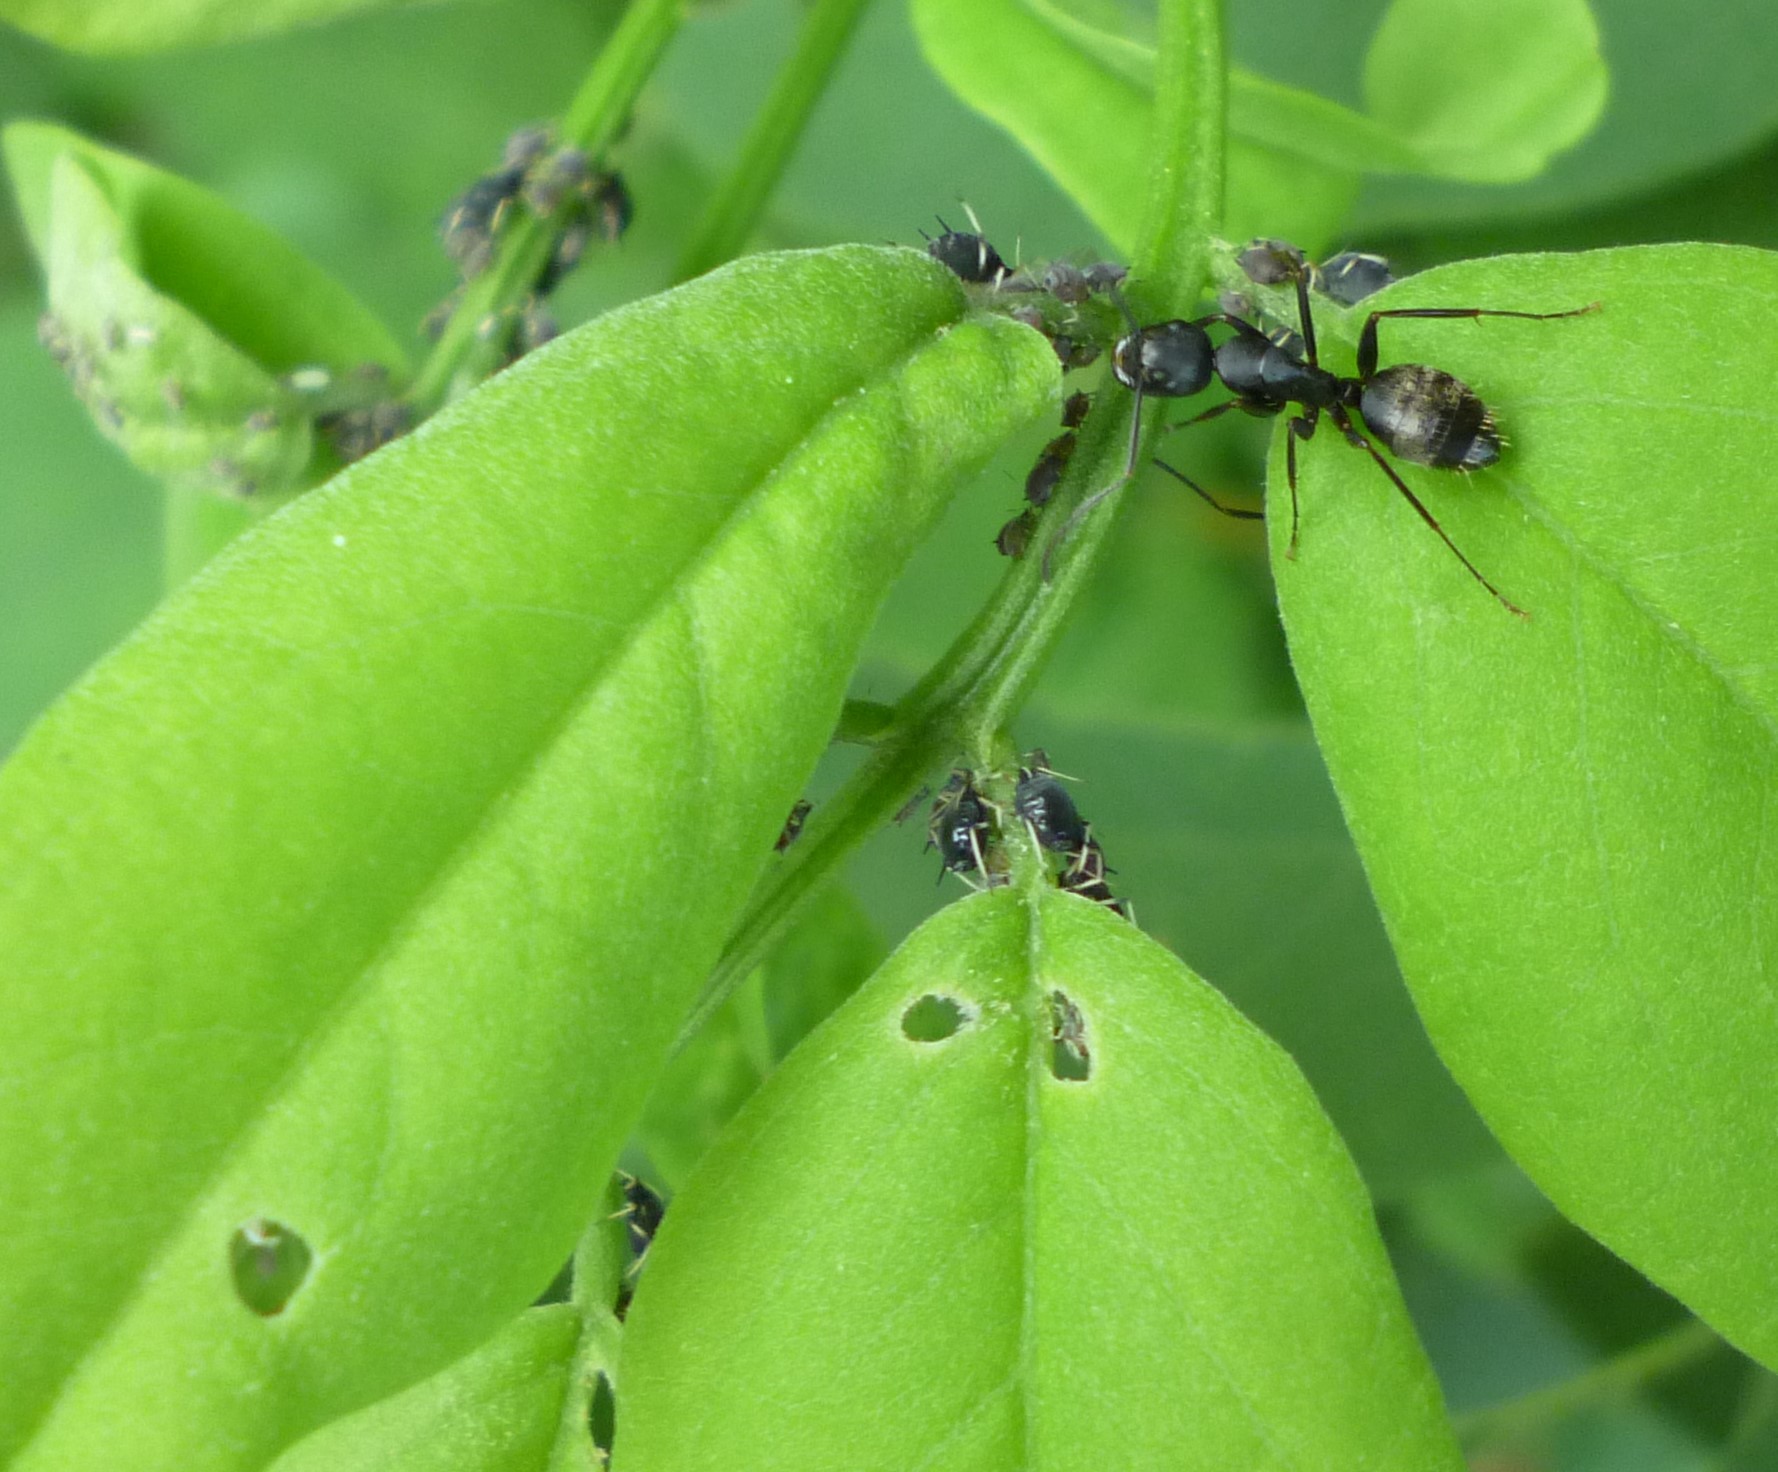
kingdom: Animalia
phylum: Arthropoda
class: Insecta
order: Hemiptera
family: Aphididae
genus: Aphis
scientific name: Aphis craccivora
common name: Cowpea aphid
